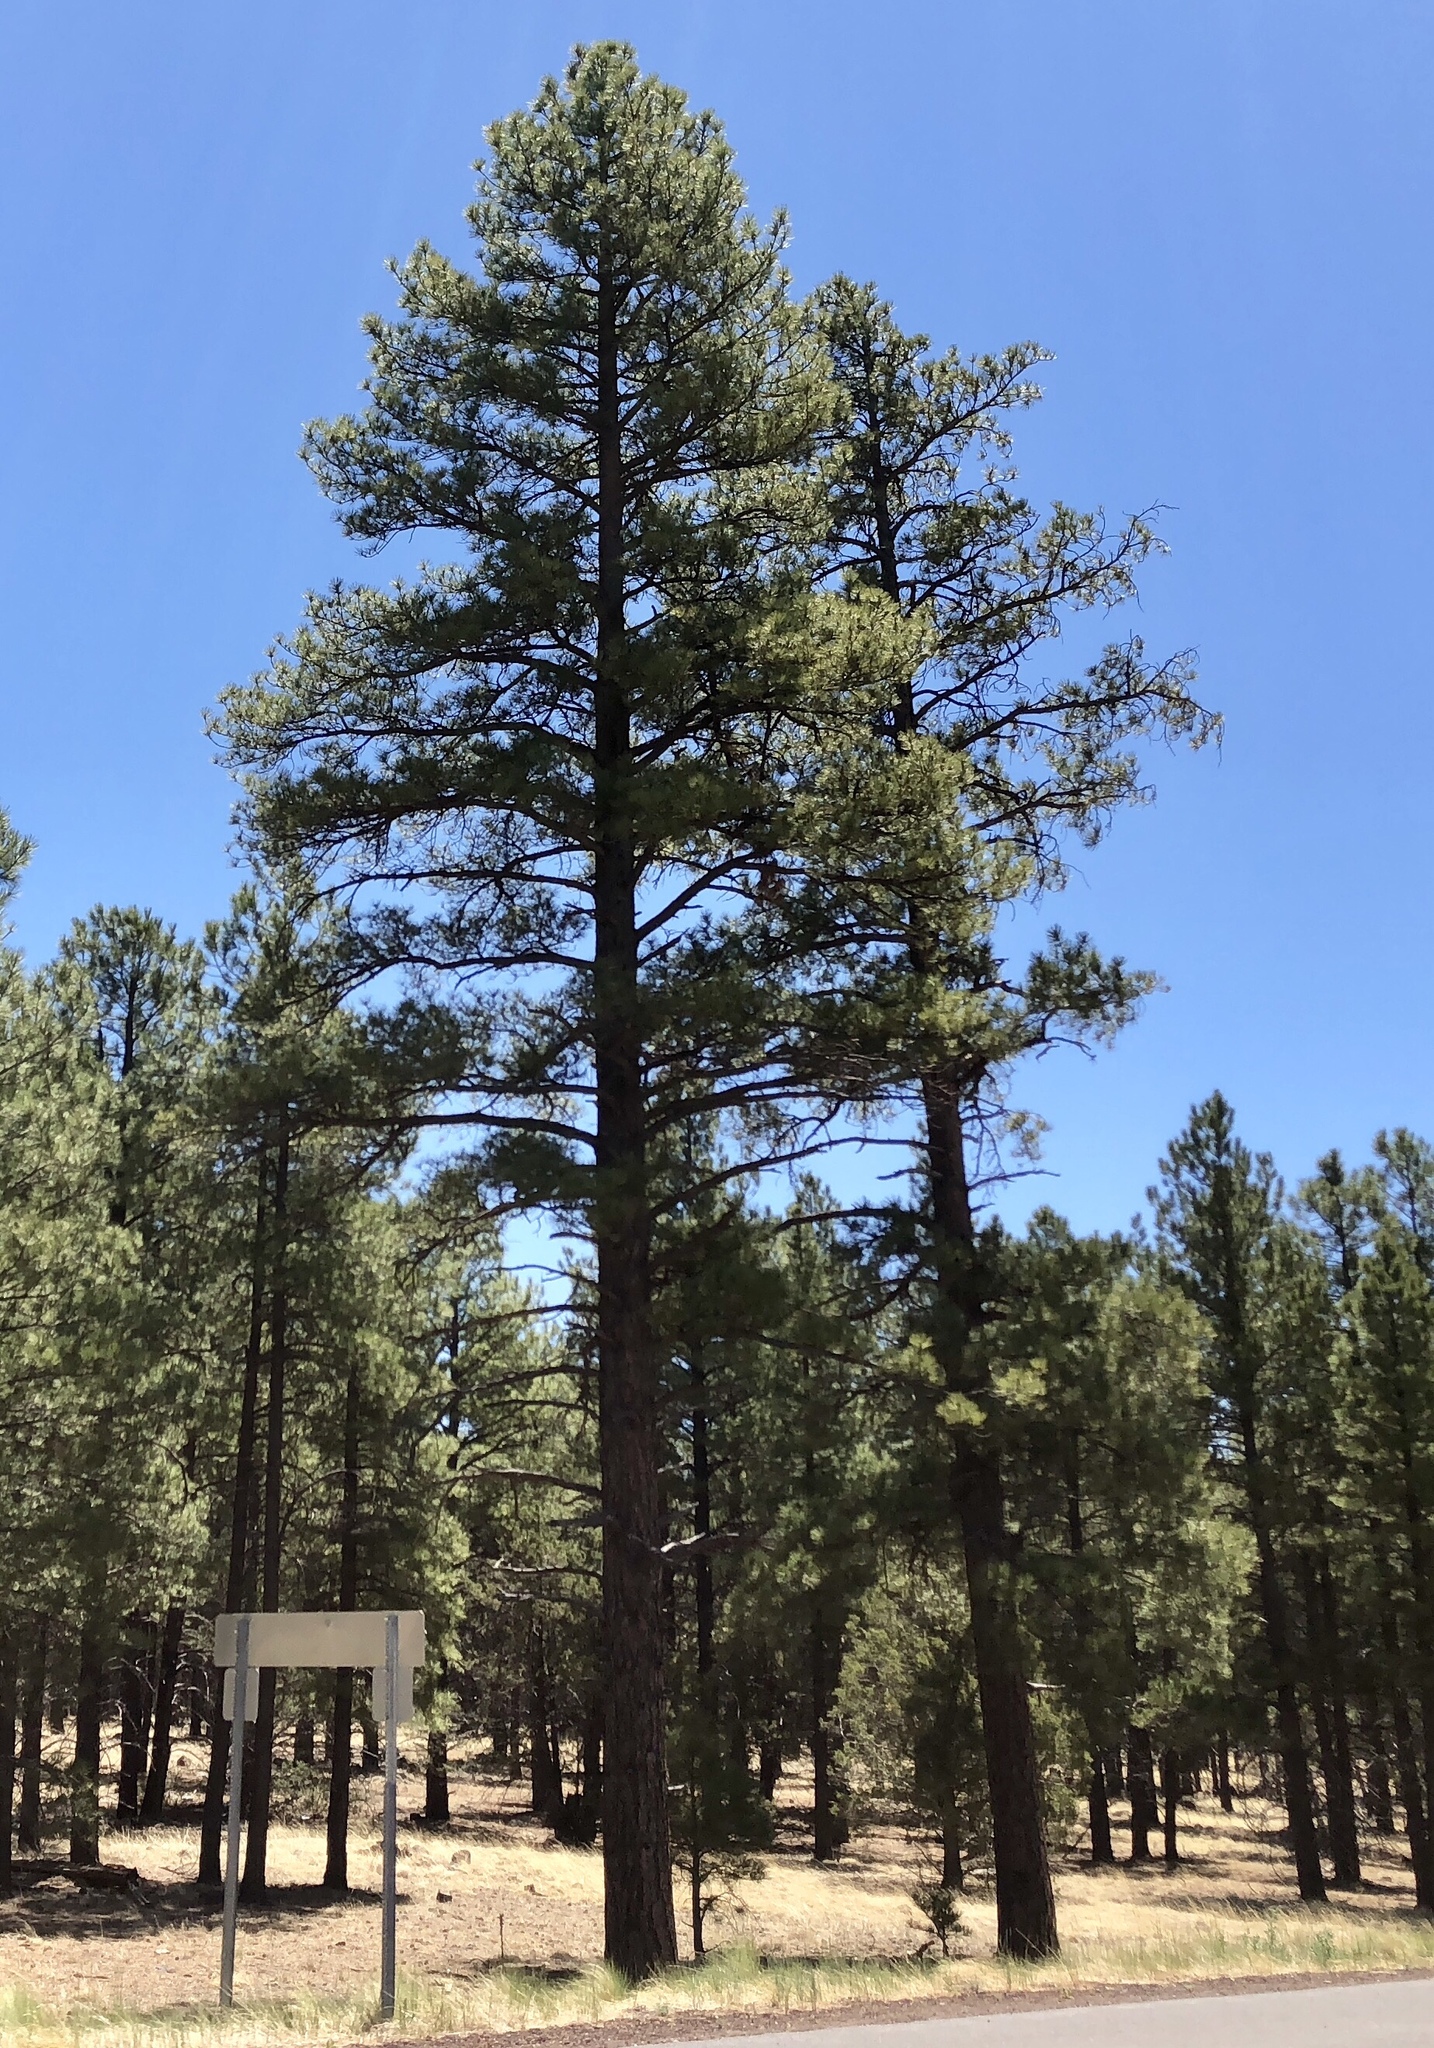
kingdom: Plantae
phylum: Tracheophyta
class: Pinopsida
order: Pinales
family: Pinaceae
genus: Pinus
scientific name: Pinus ponderosa
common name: Western yellow-pine
